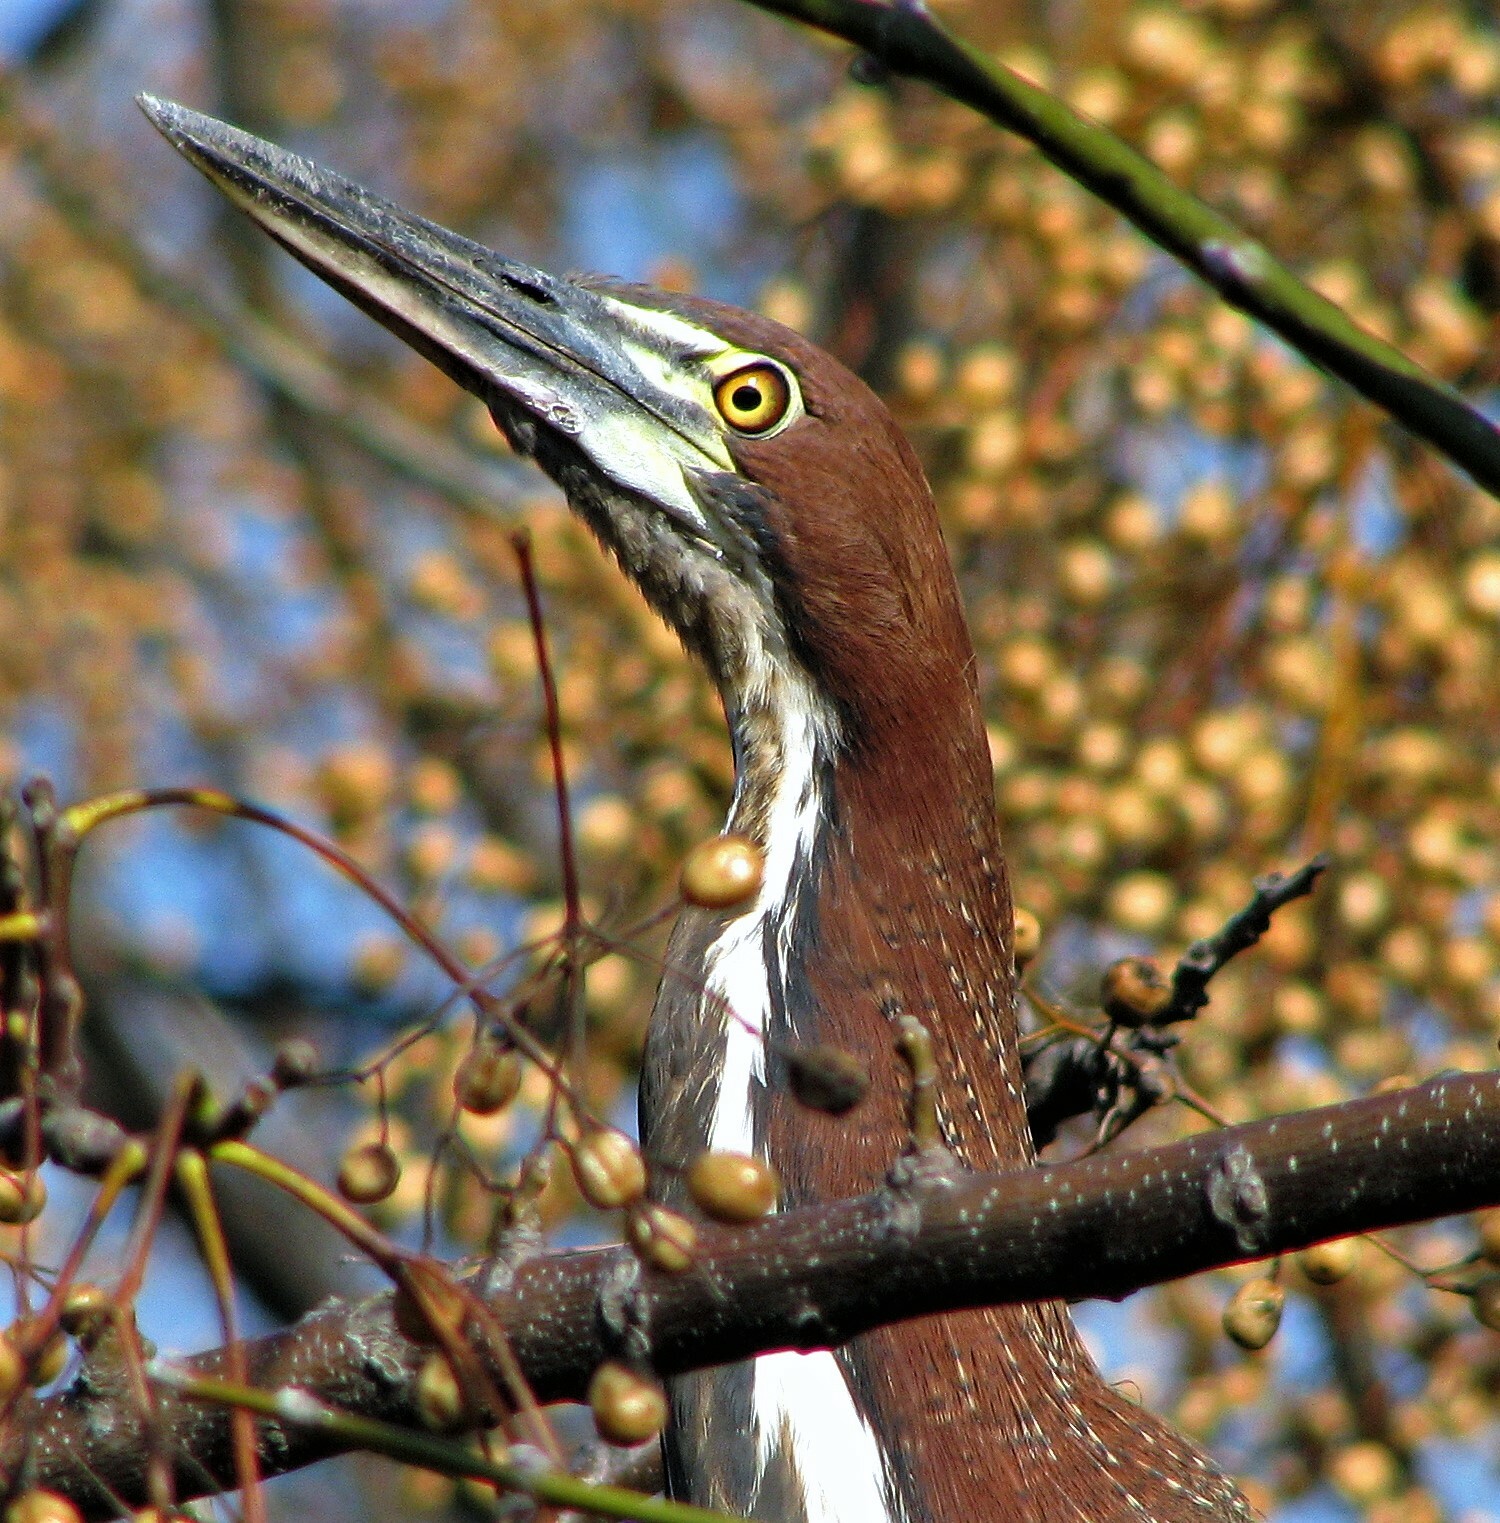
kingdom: Animalia
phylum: Chordata
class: Aves
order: Pelecaniformes
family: Ardeidae
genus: Tigrisoma
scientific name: Tigrisoma lineatum
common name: Rufescent tiger-heron
